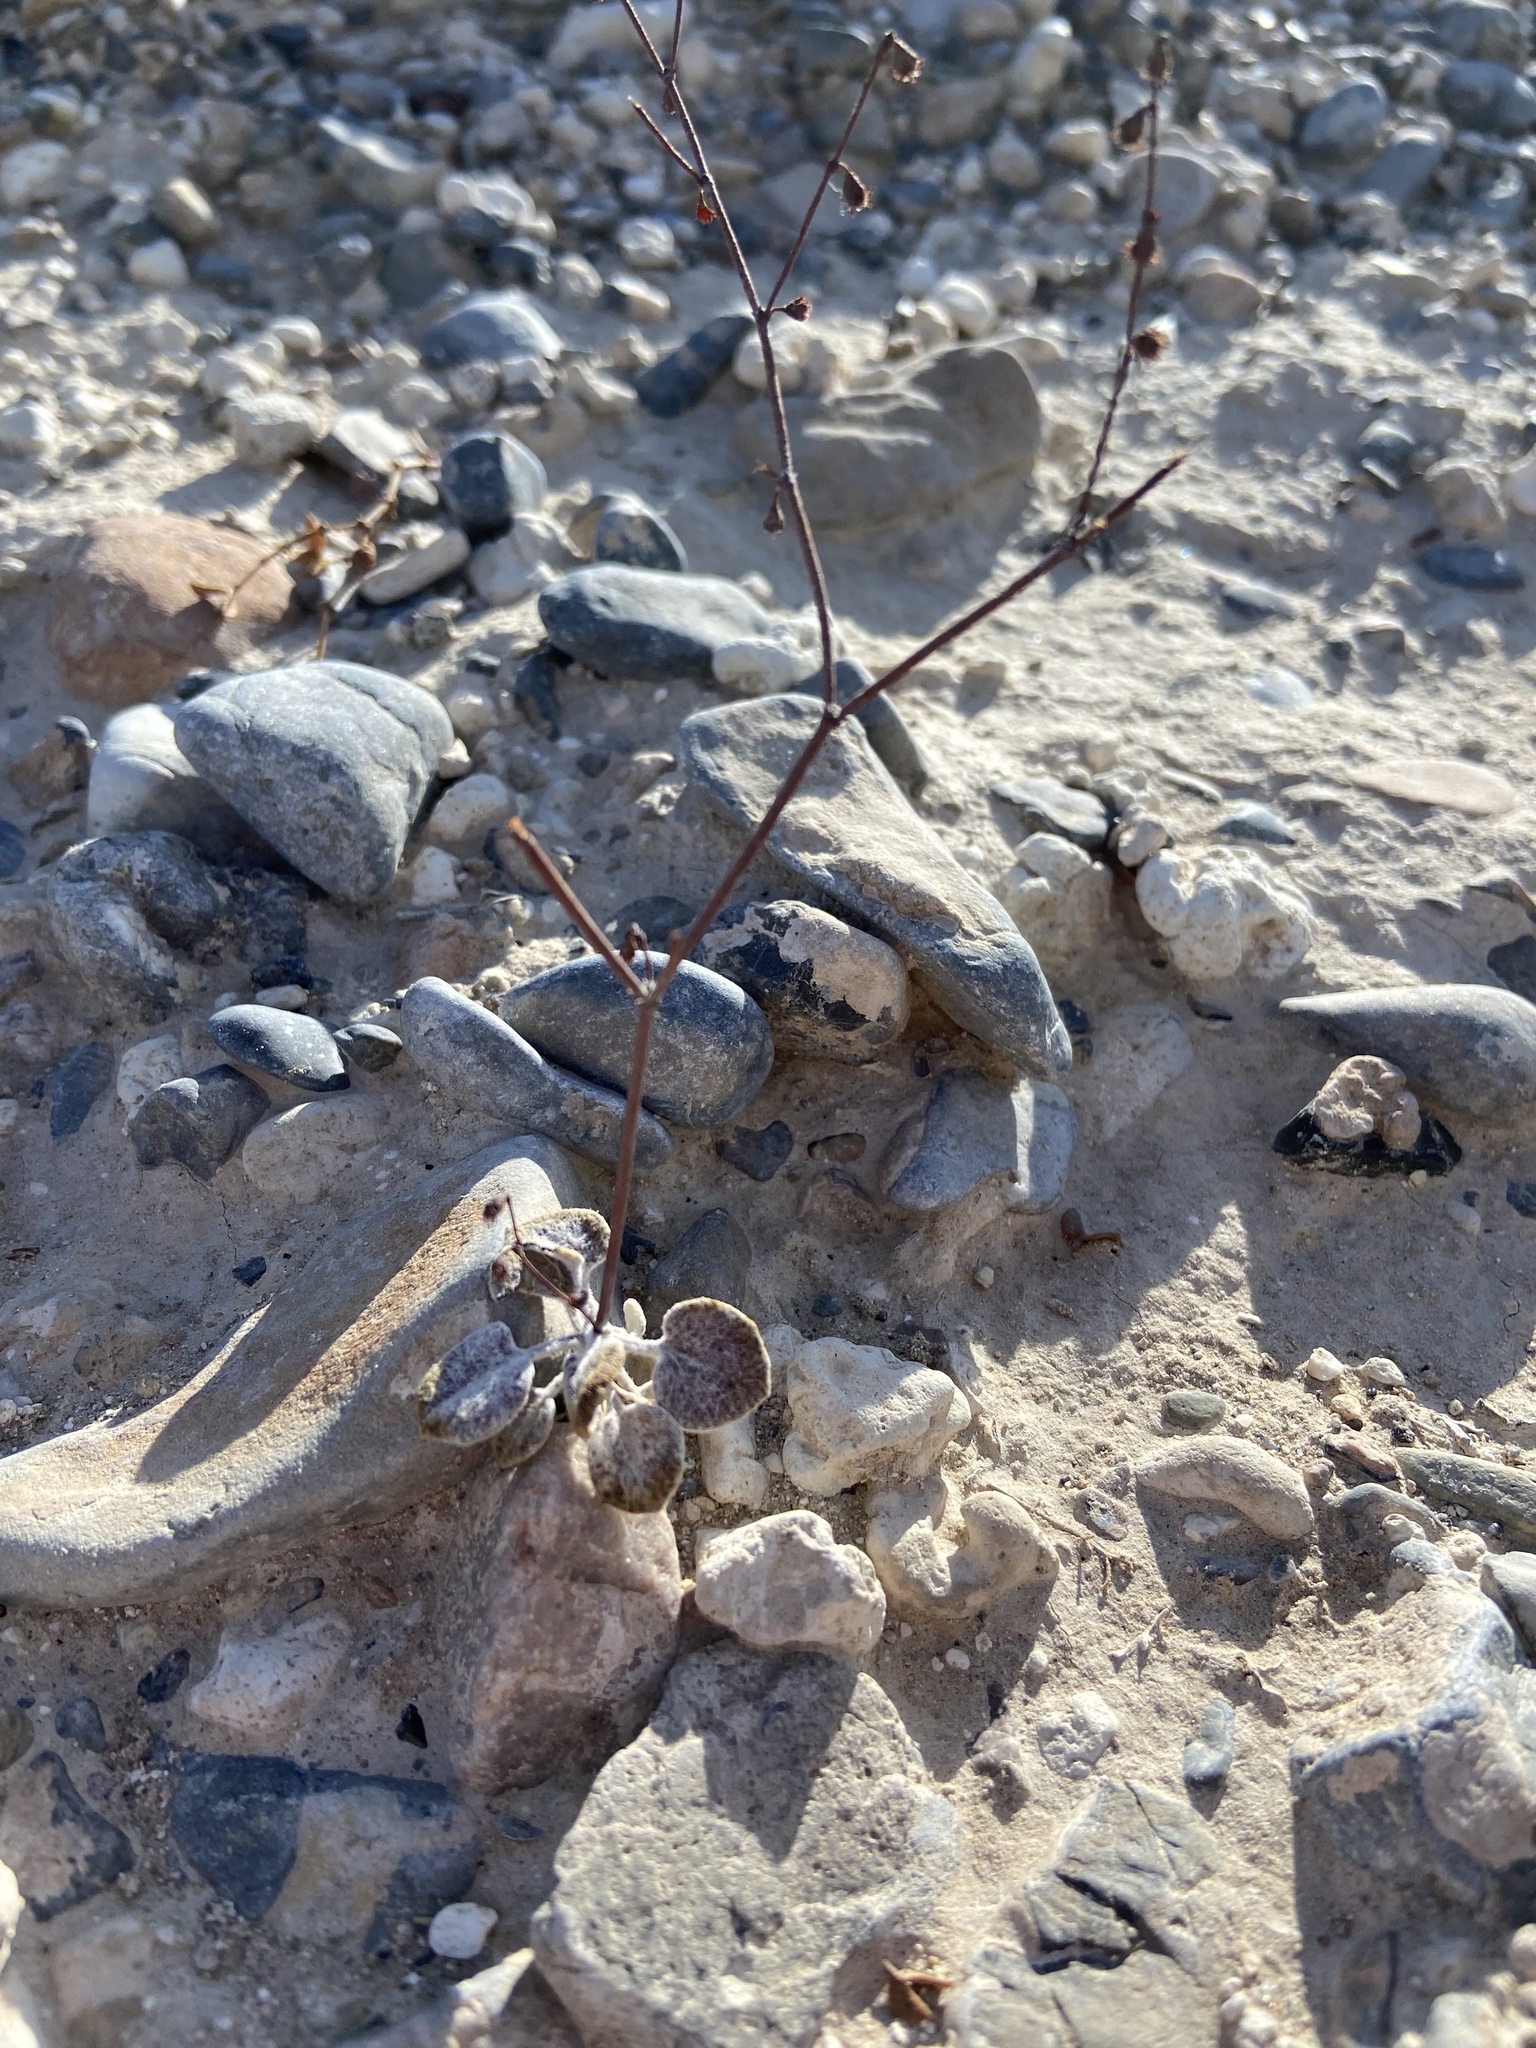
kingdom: Plantae
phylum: Tracheophyta
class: Magnoliopsida
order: Caryophyllales
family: Polygonaceae
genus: Eriogonum
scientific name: Eriogonum deflexum
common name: Skeleton-weed
